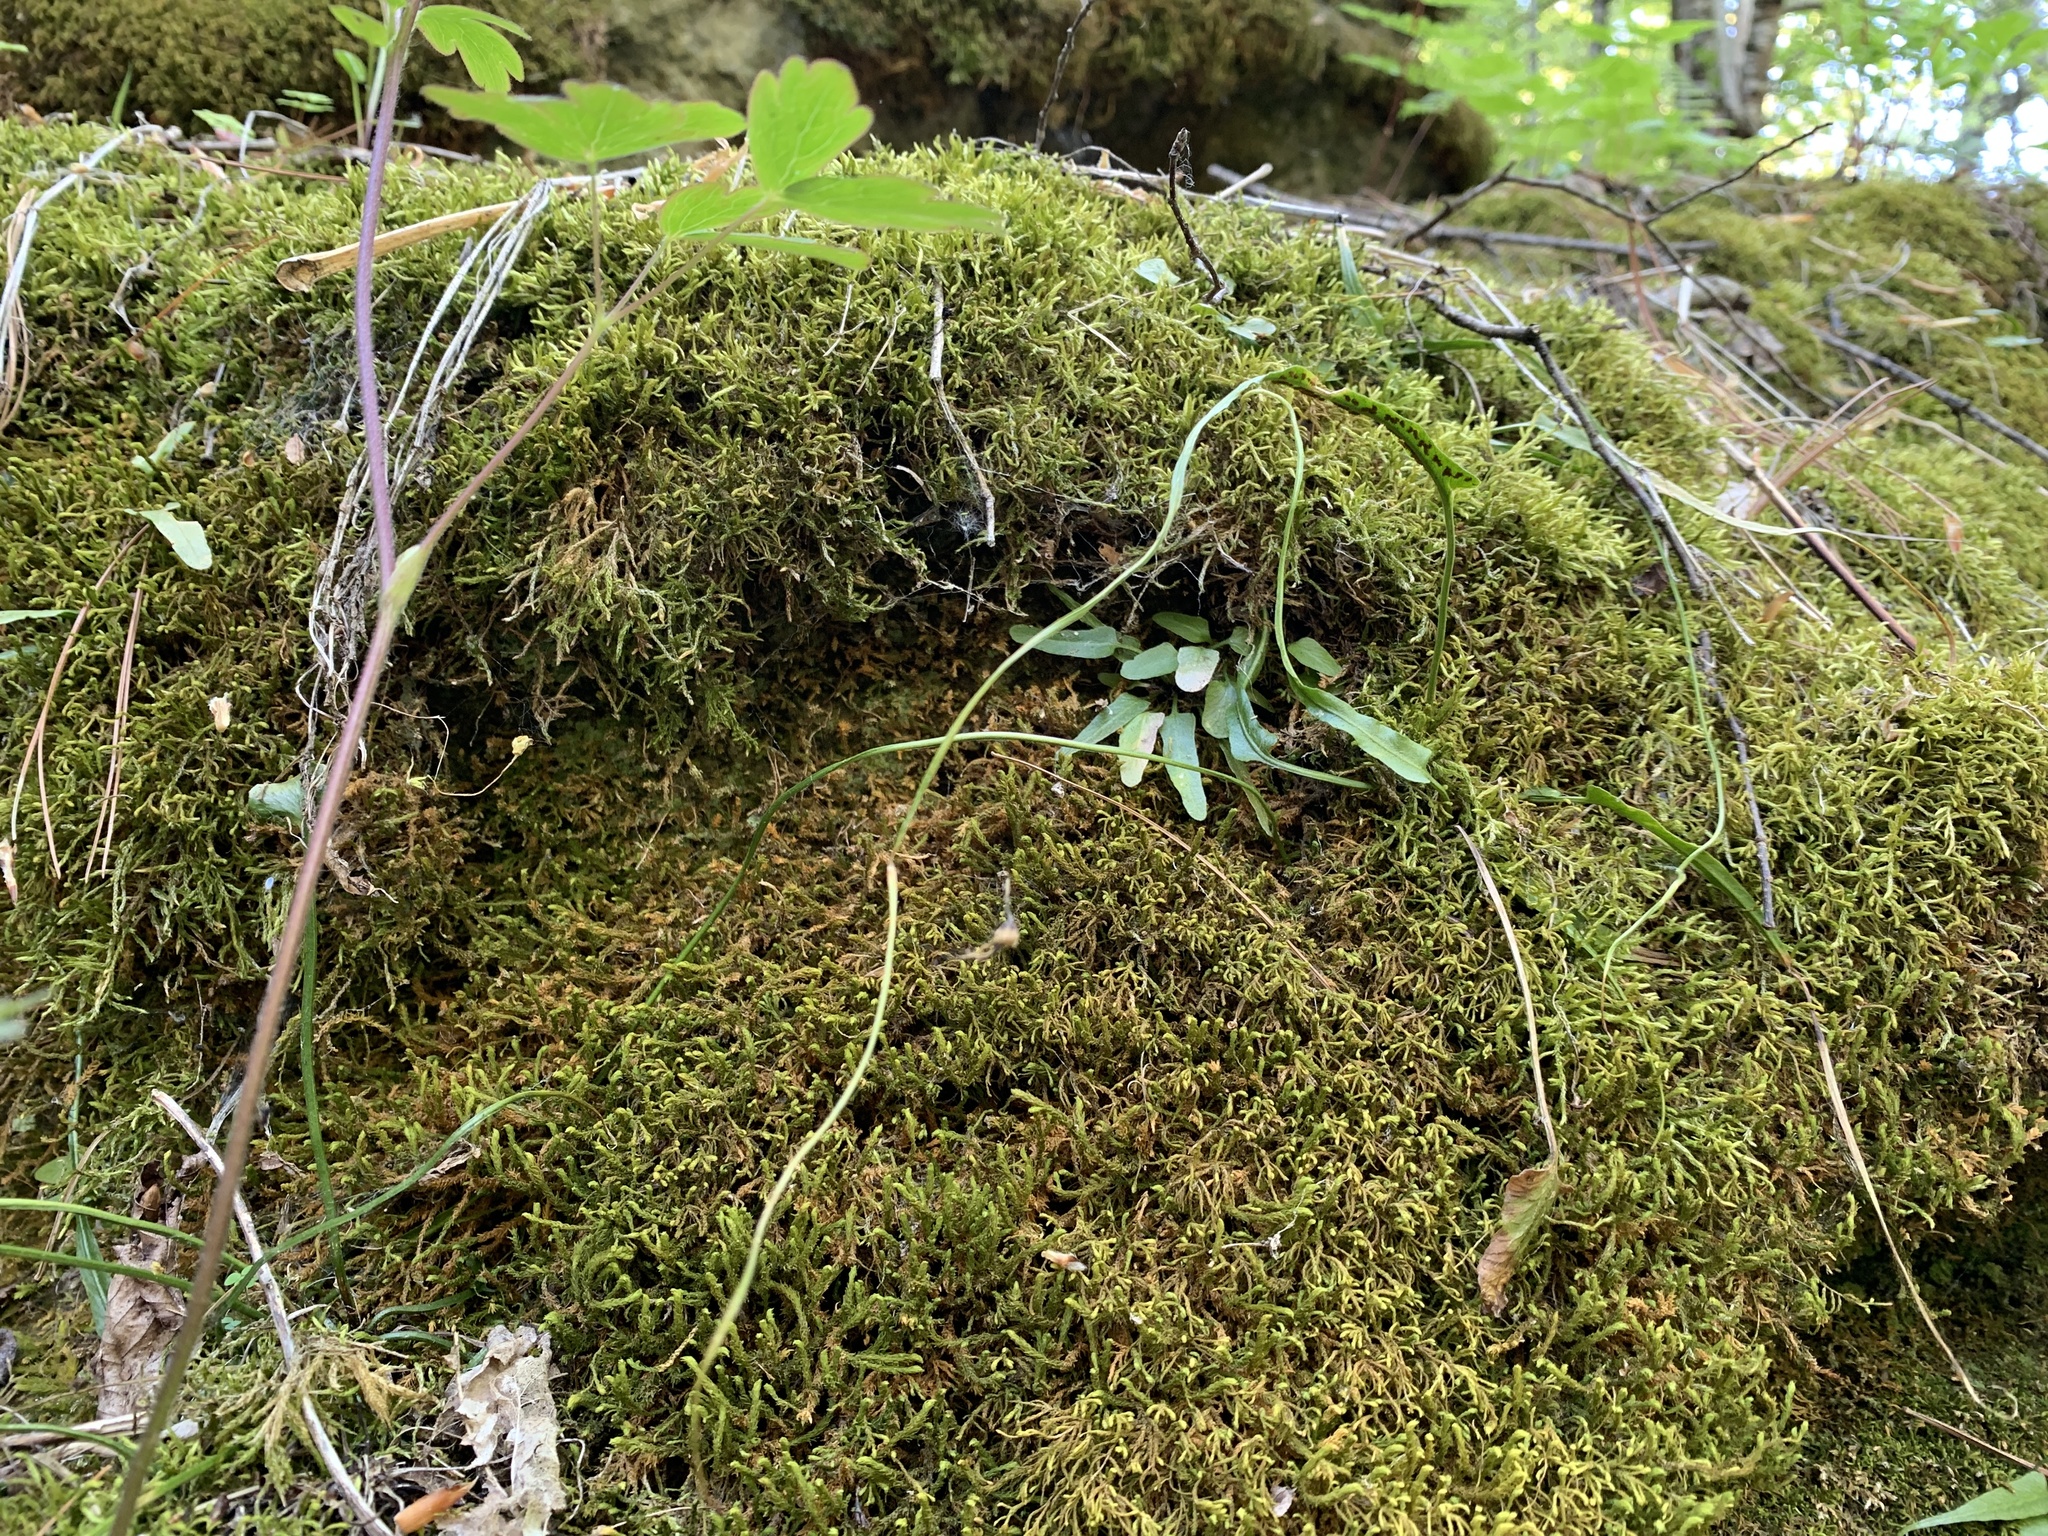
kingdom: Plantae
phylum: Tracheophyta
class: Polypodiopsida
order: Polypodiales
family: Aspleniaceae
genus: Asplenium
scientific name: Asplenium rhizophyllum
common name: Walking fern
